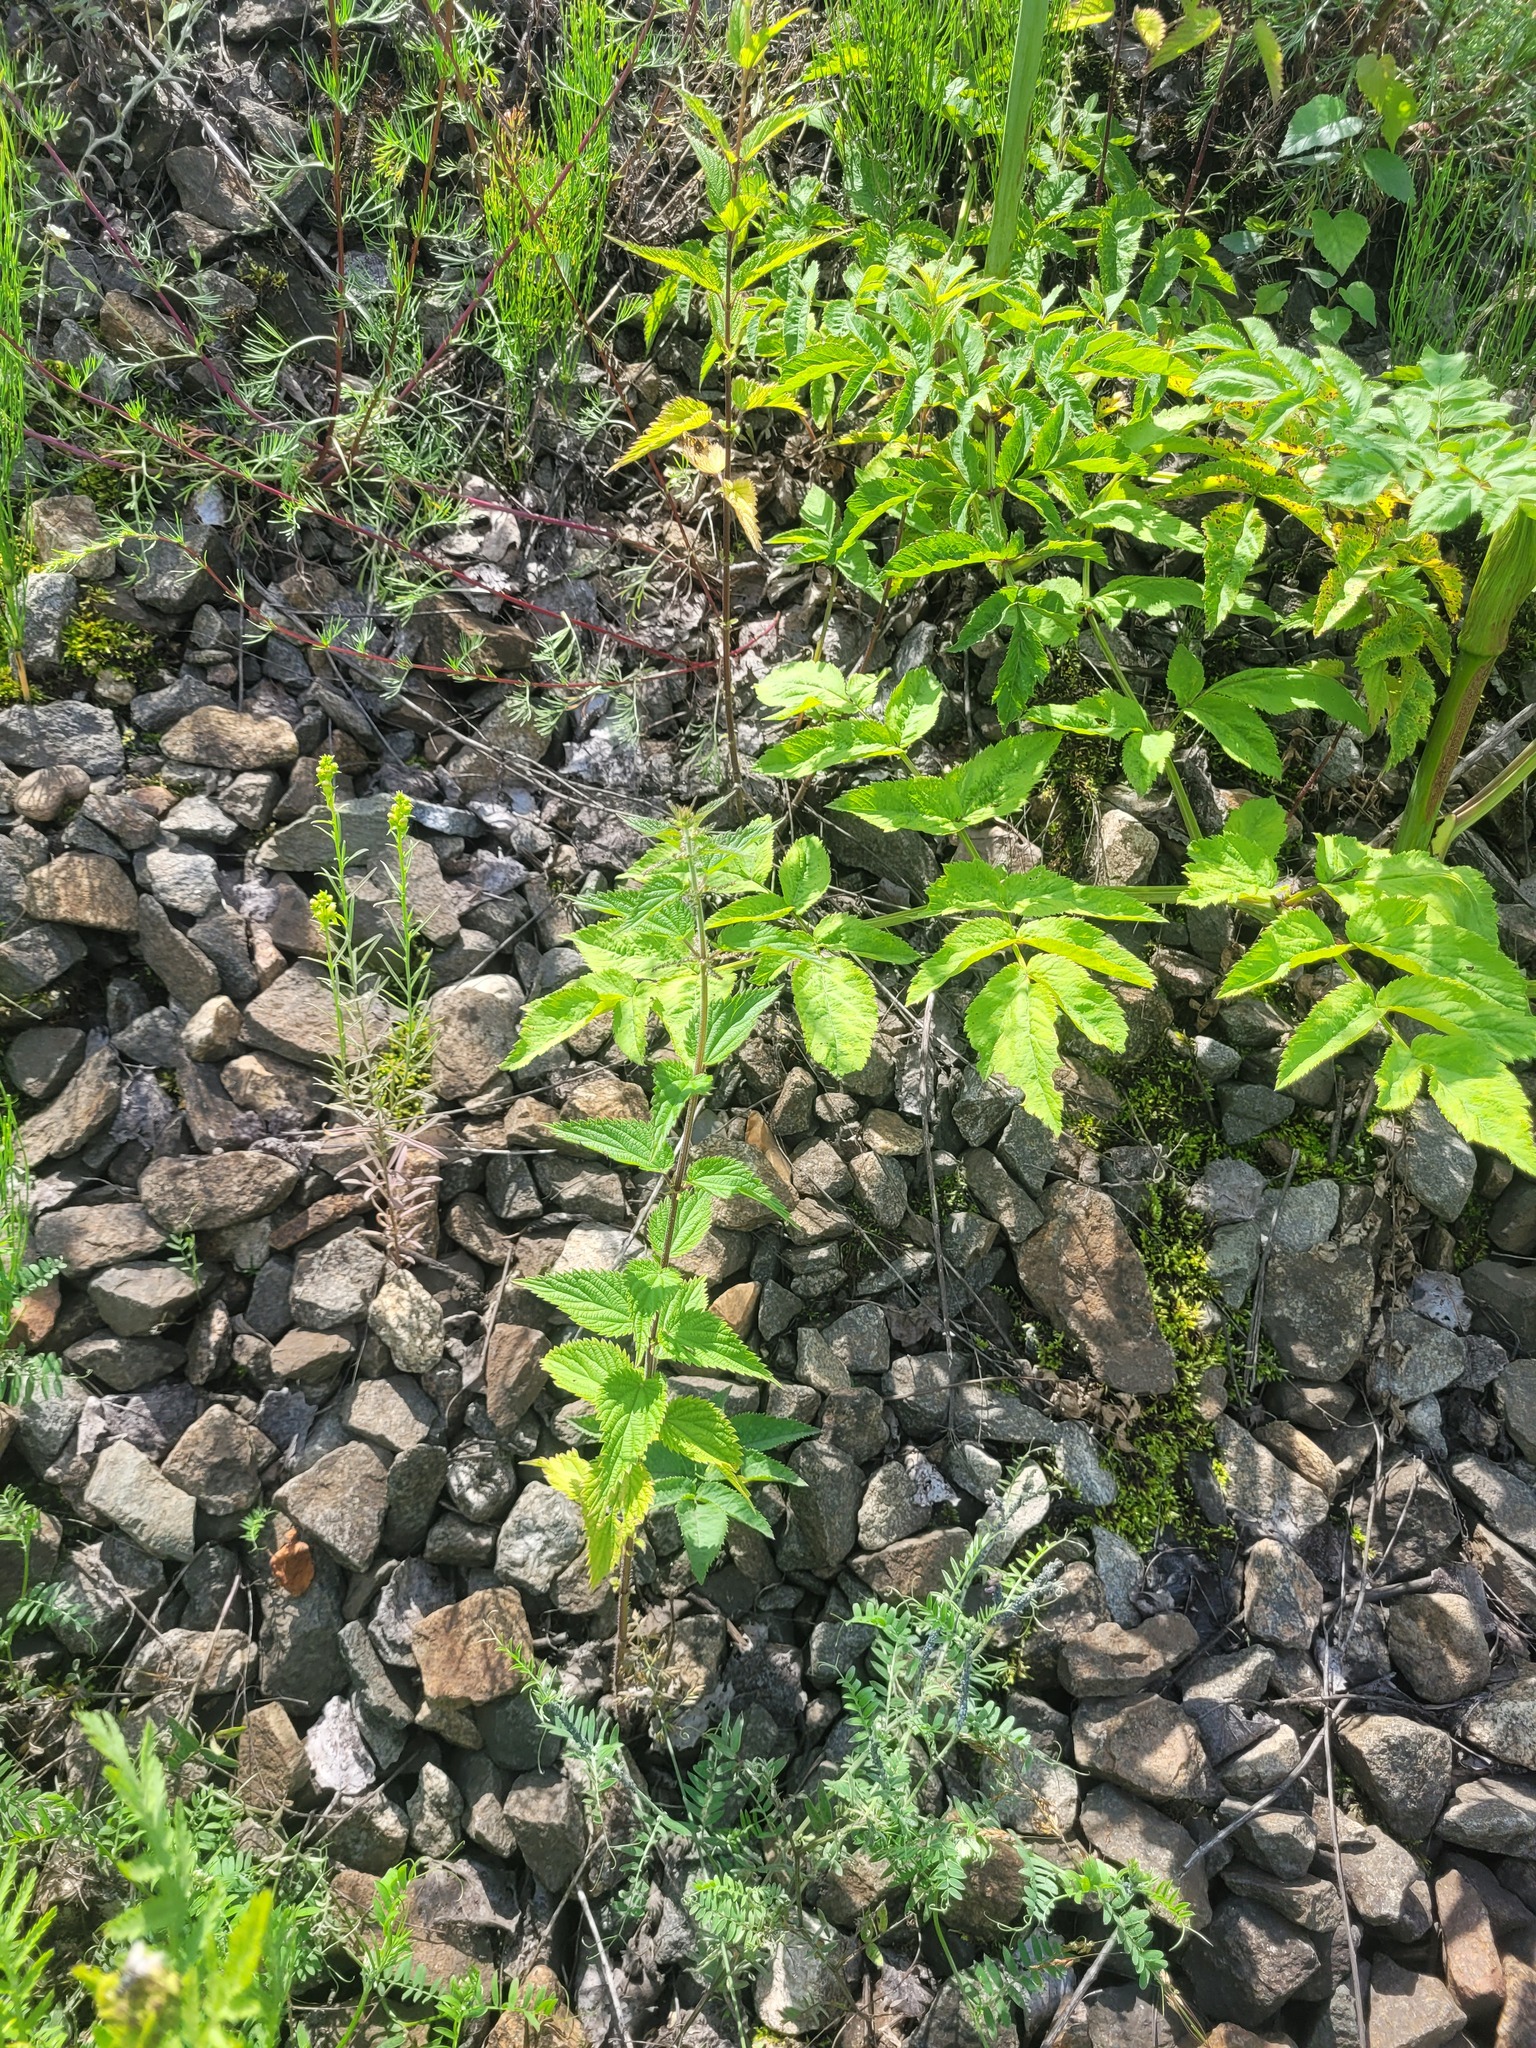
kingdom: Plantae
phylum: Tracheophyta
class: Magnoliopsida
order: Rosales
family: Urticaceae
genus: Urtica
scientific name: Urtica dioica
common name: Common nettle
